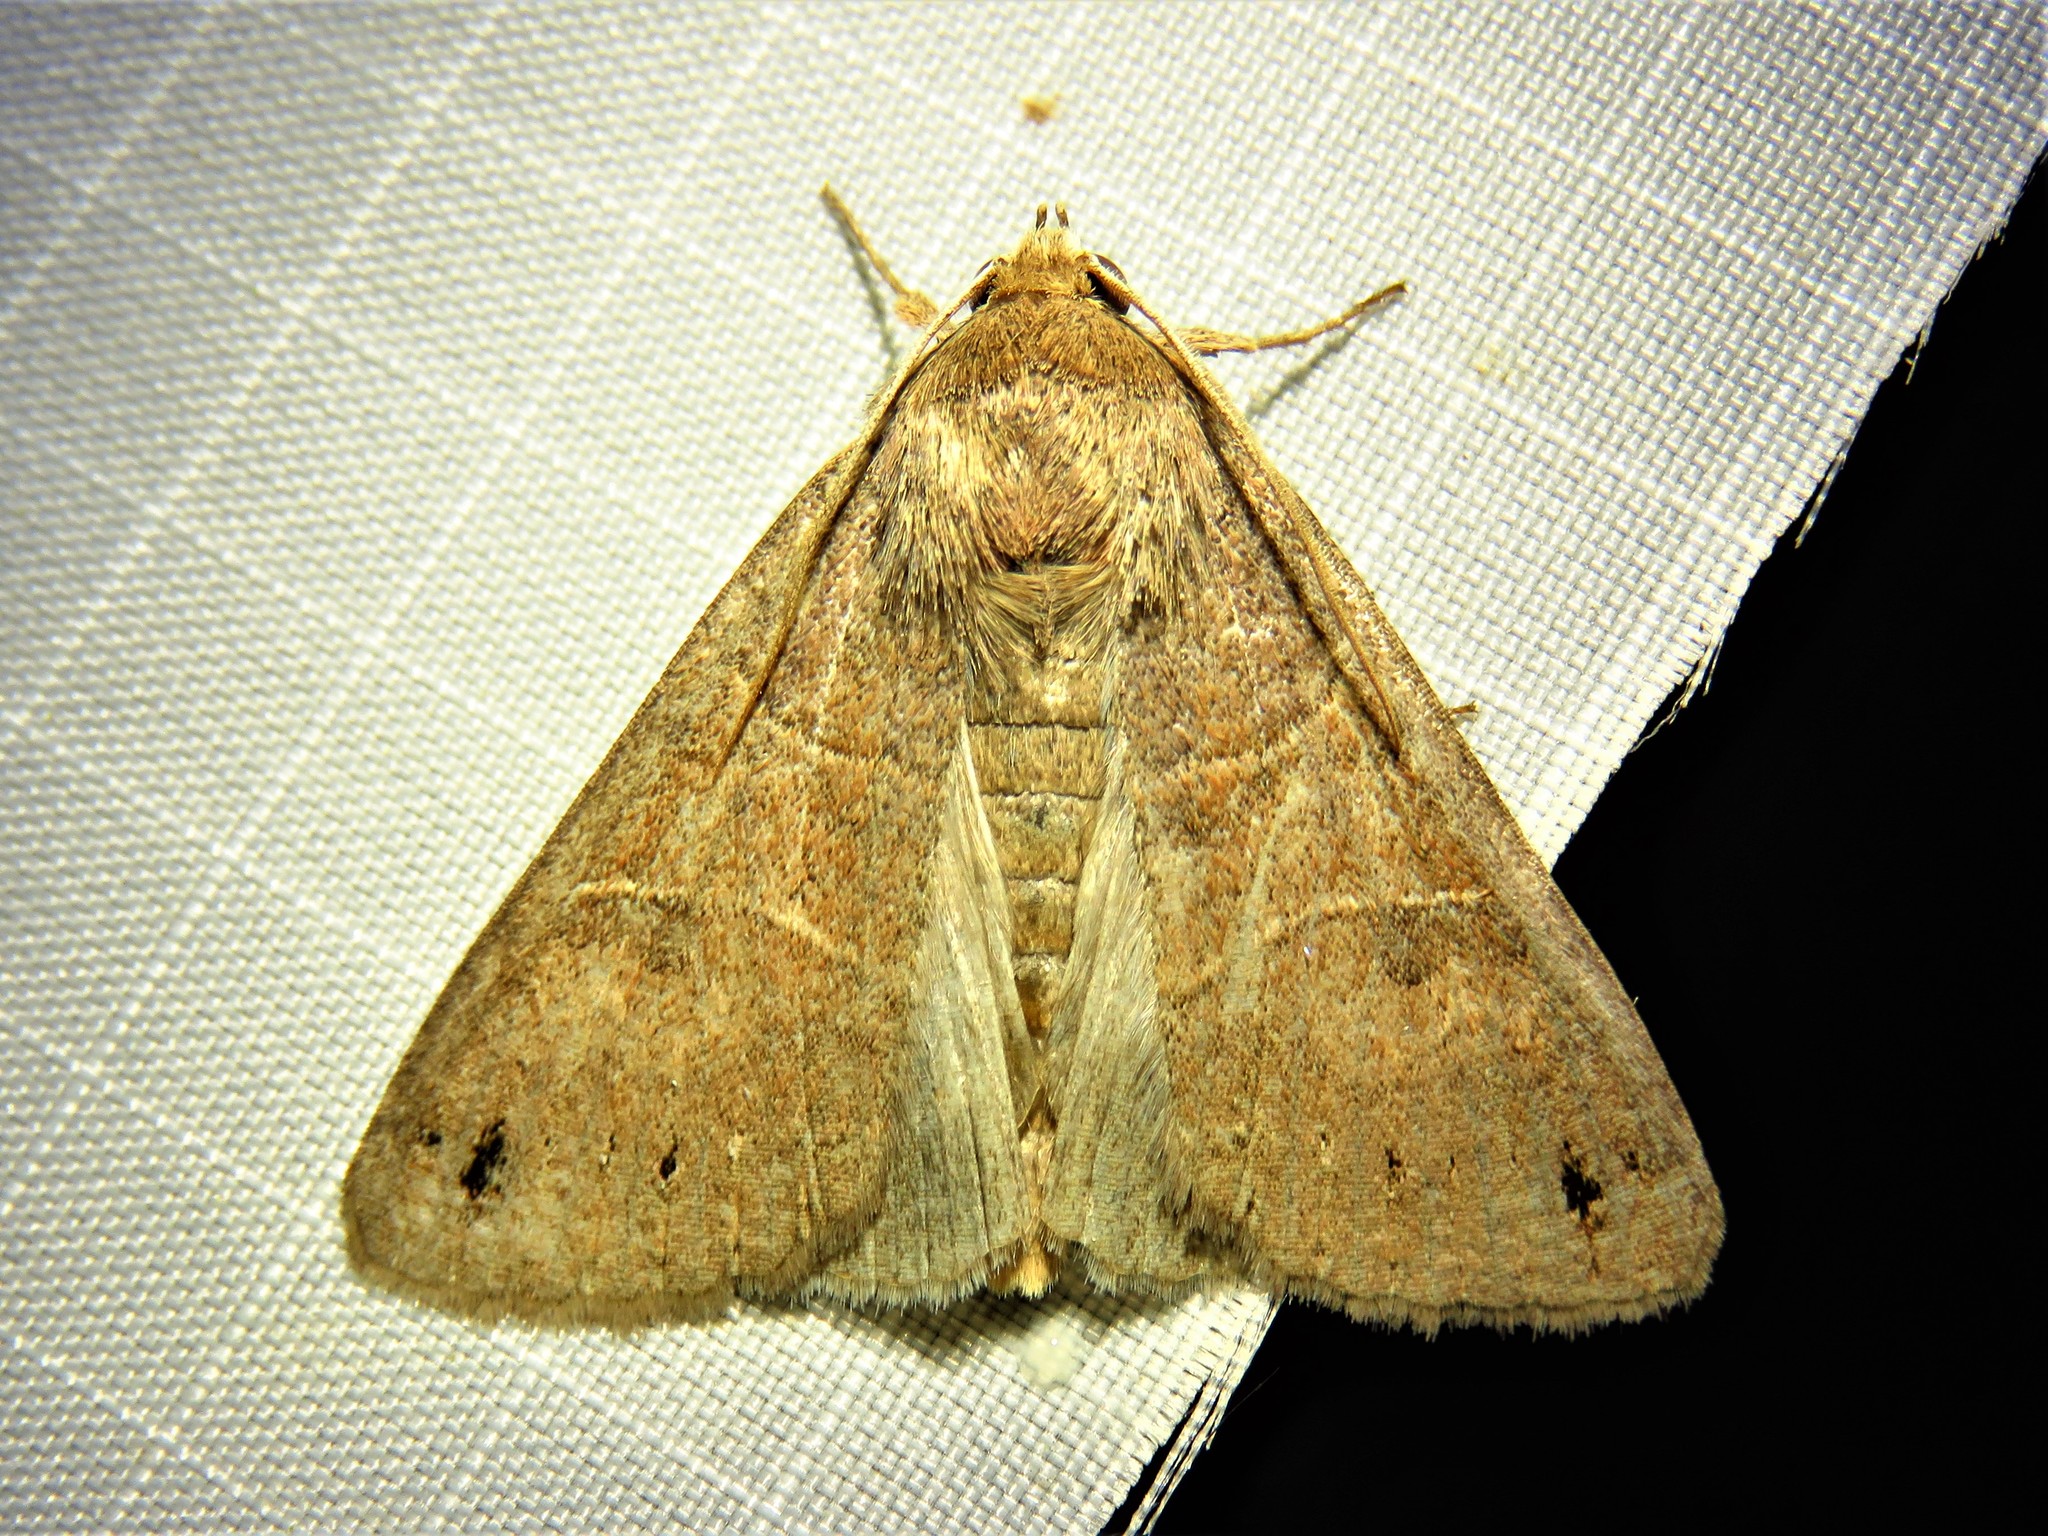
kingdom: Animalia
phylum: Arthropoda
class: Insecta
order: Lepidoptera
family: Erebidae
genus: Cissusa
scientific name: Cissusa spadix
